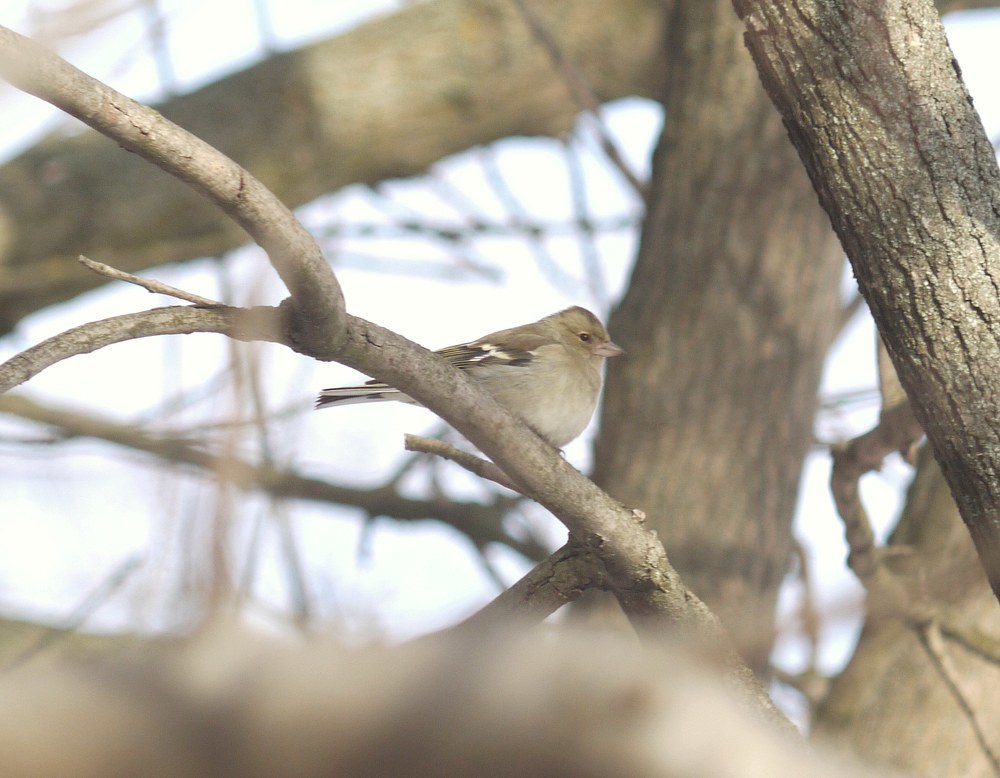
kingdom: Animalia
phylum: Chordata
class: Aves
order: Passeriformes
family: Fringillidae
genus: Fringilla
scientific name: Fringilla coelebs
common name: Common chaffinch
